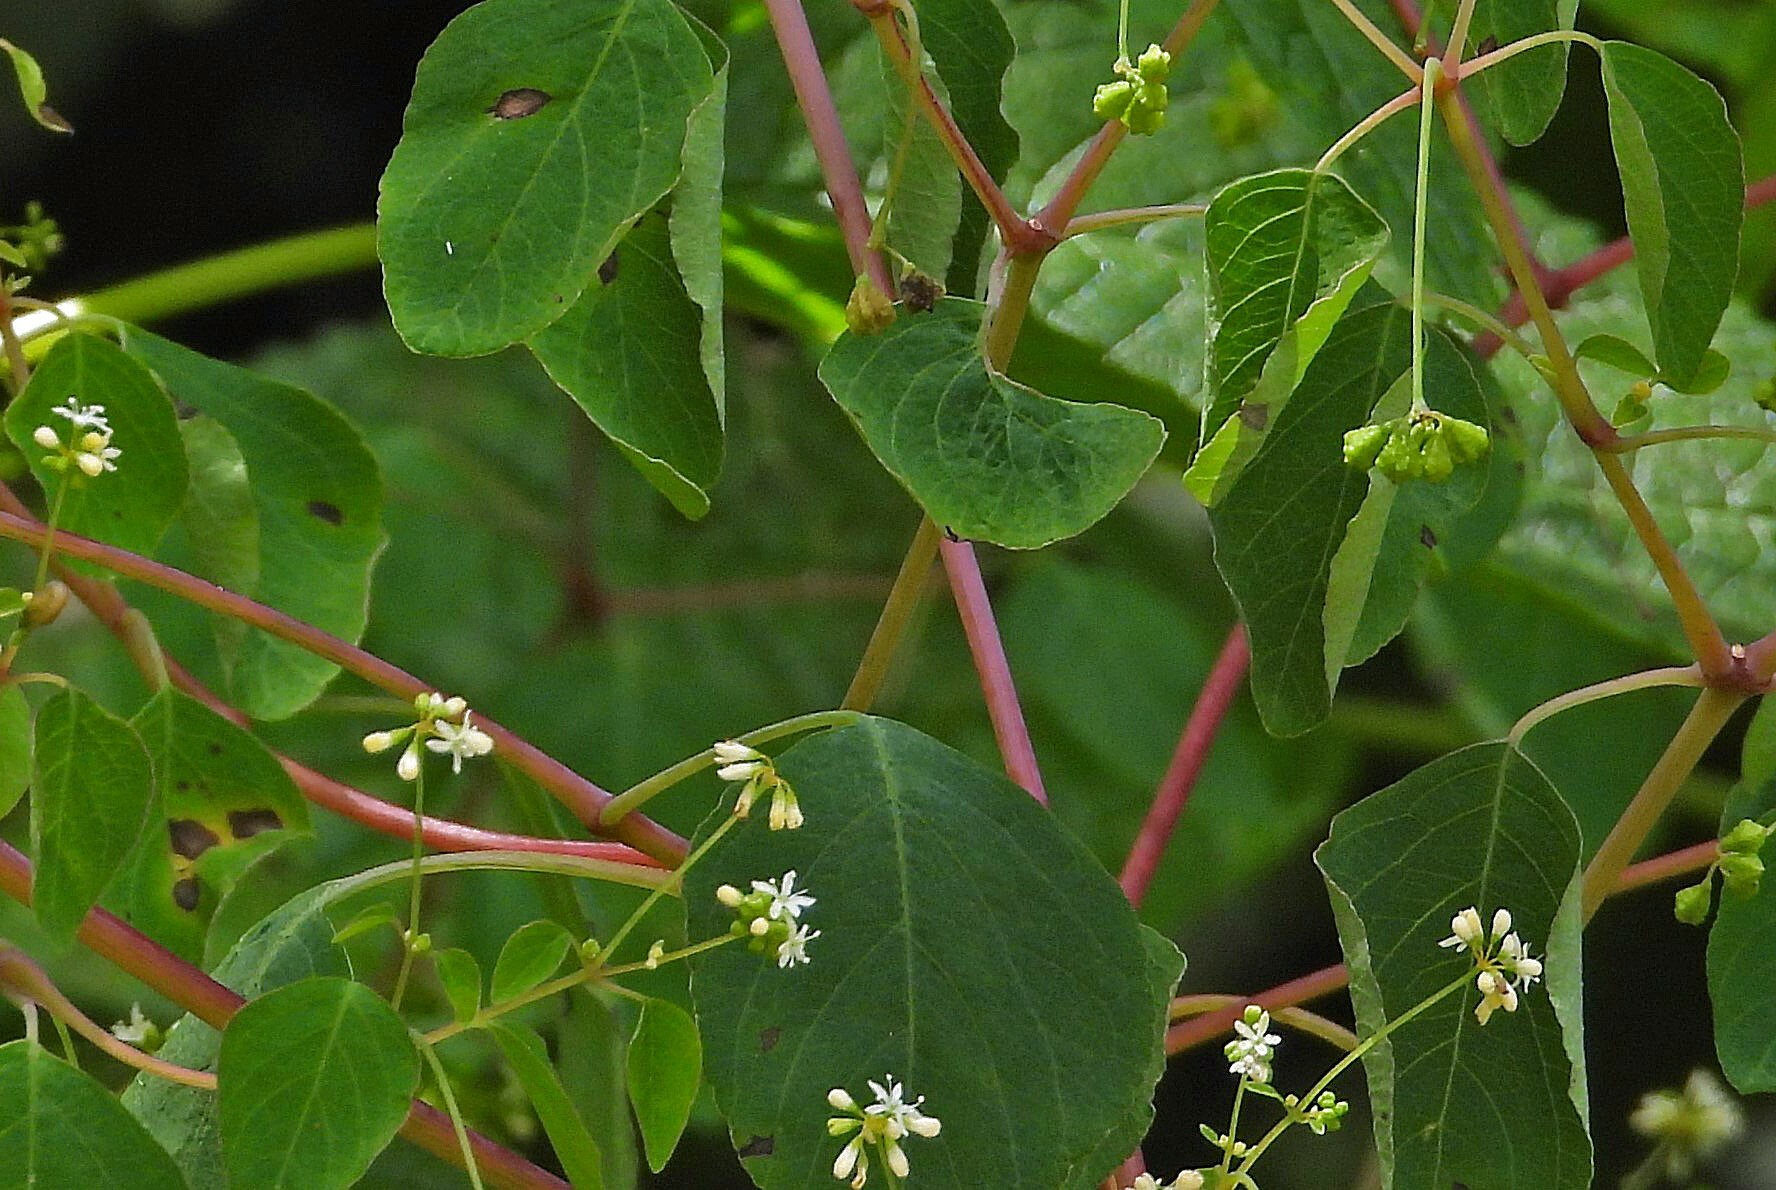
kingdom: Plantae
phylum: Tracheophyta
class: Magnoliopsida
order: Caryophyllales
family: Nyctaginaceae
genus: Colignonia
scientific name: Colignonia glomerata
